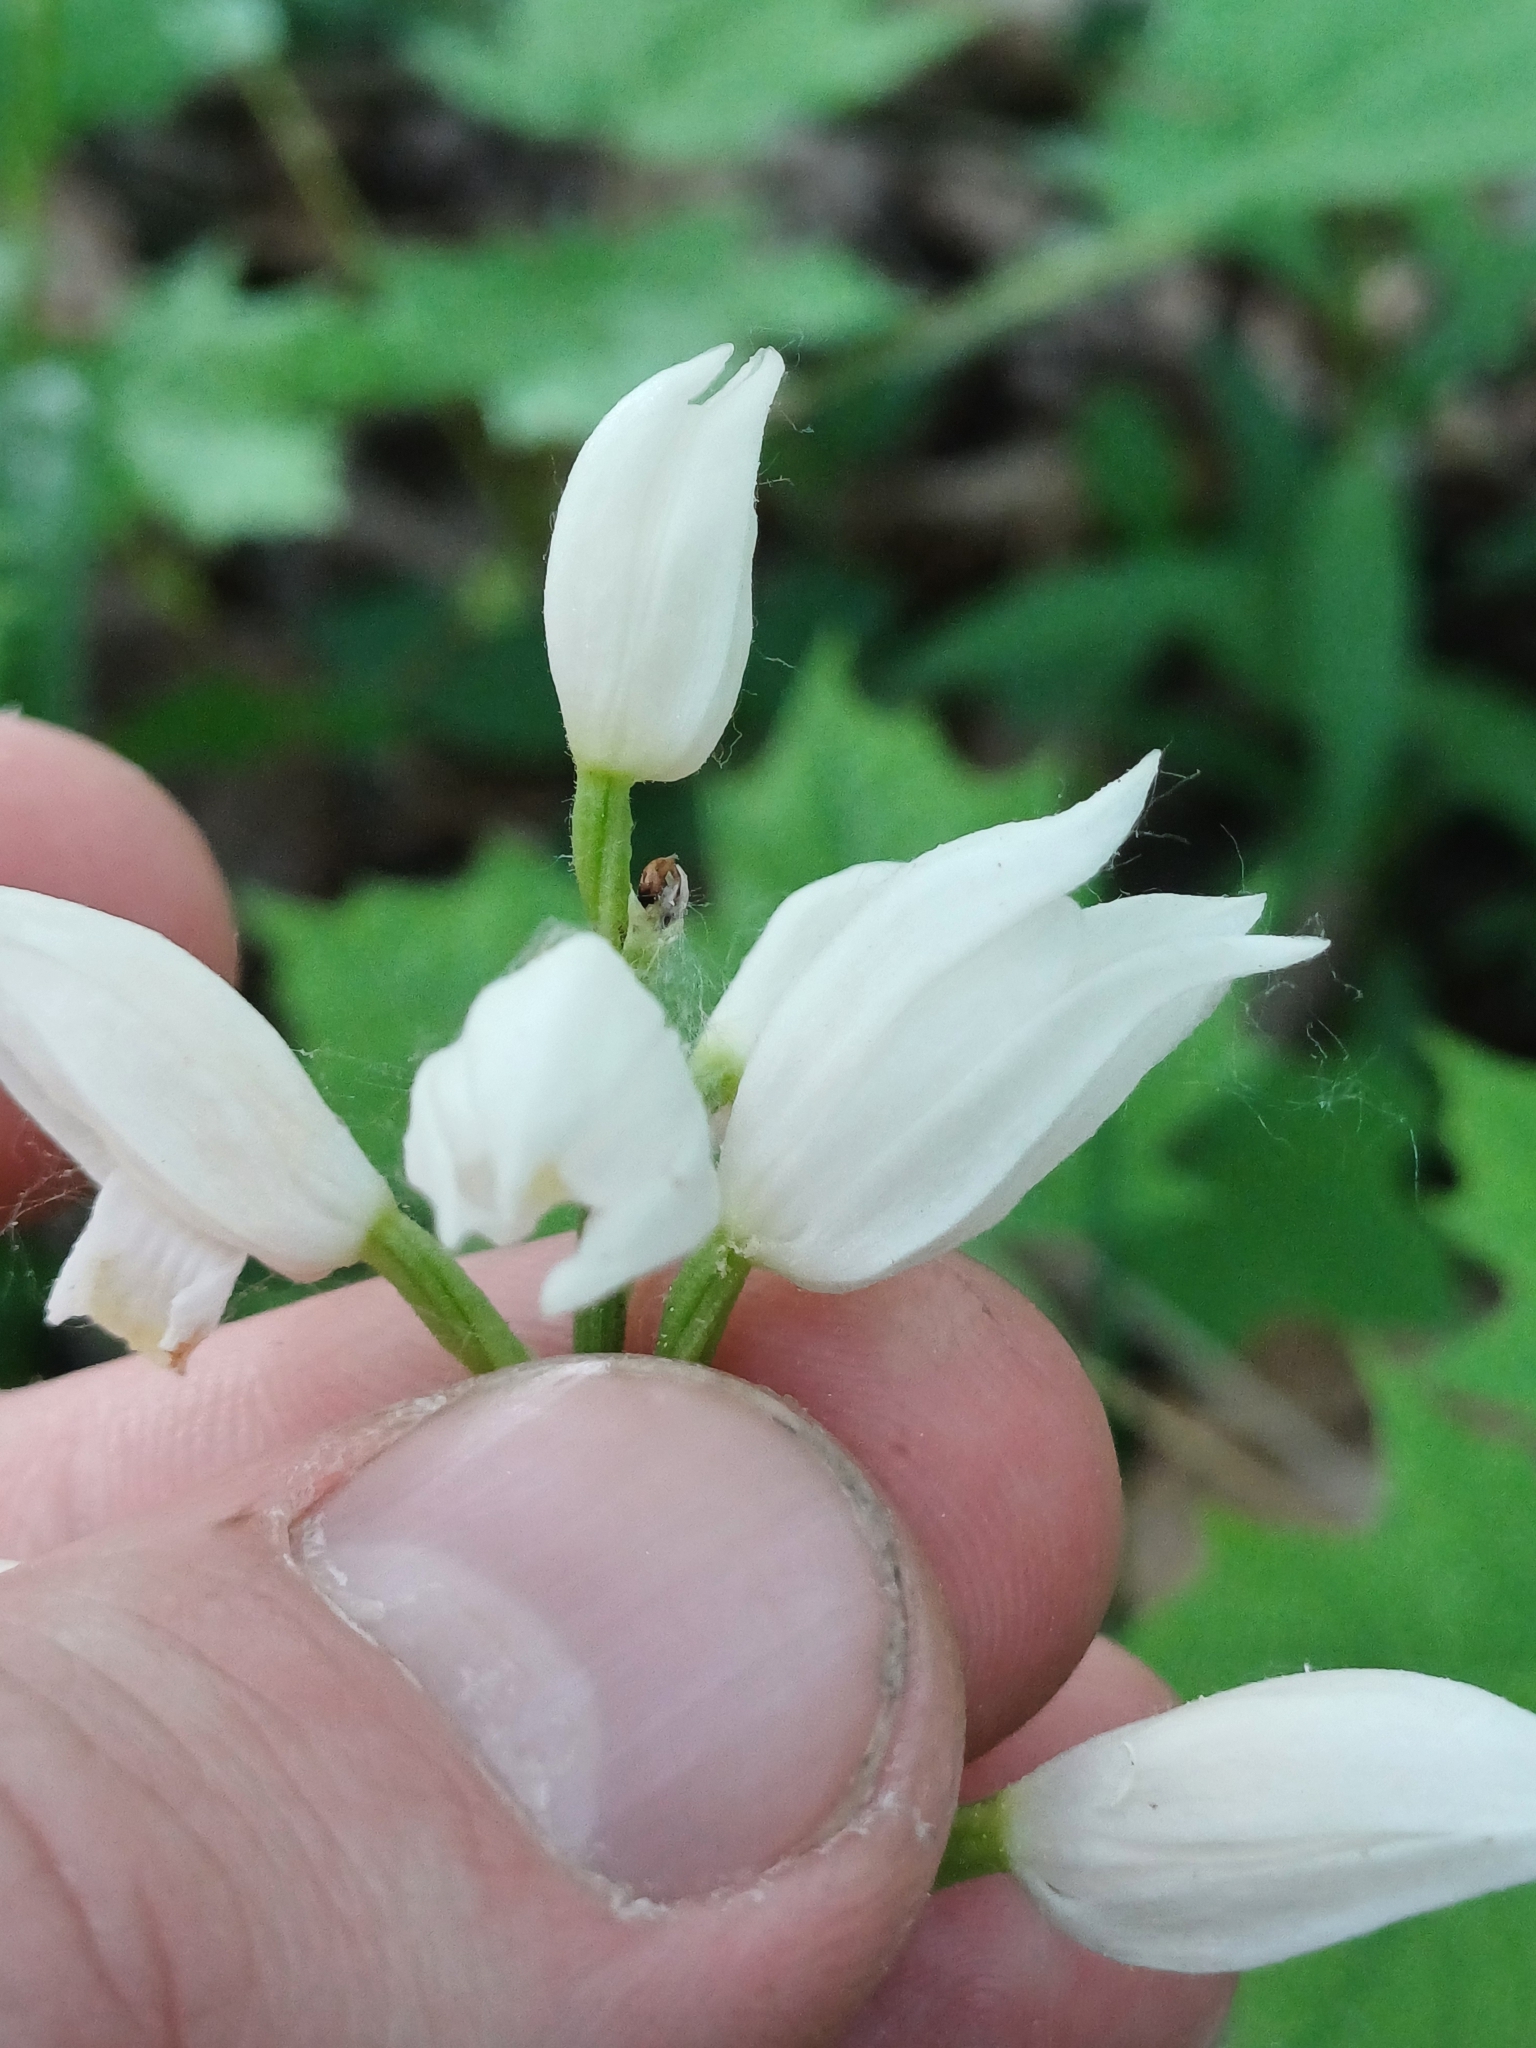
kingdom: Plantae
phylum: Tracheophyta
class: Liliopsida
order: Asparagales
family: Orchidaceae
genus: Cephalanthera
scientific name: Cephalanthera longifolia
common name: Narrow-leaved helleborine
